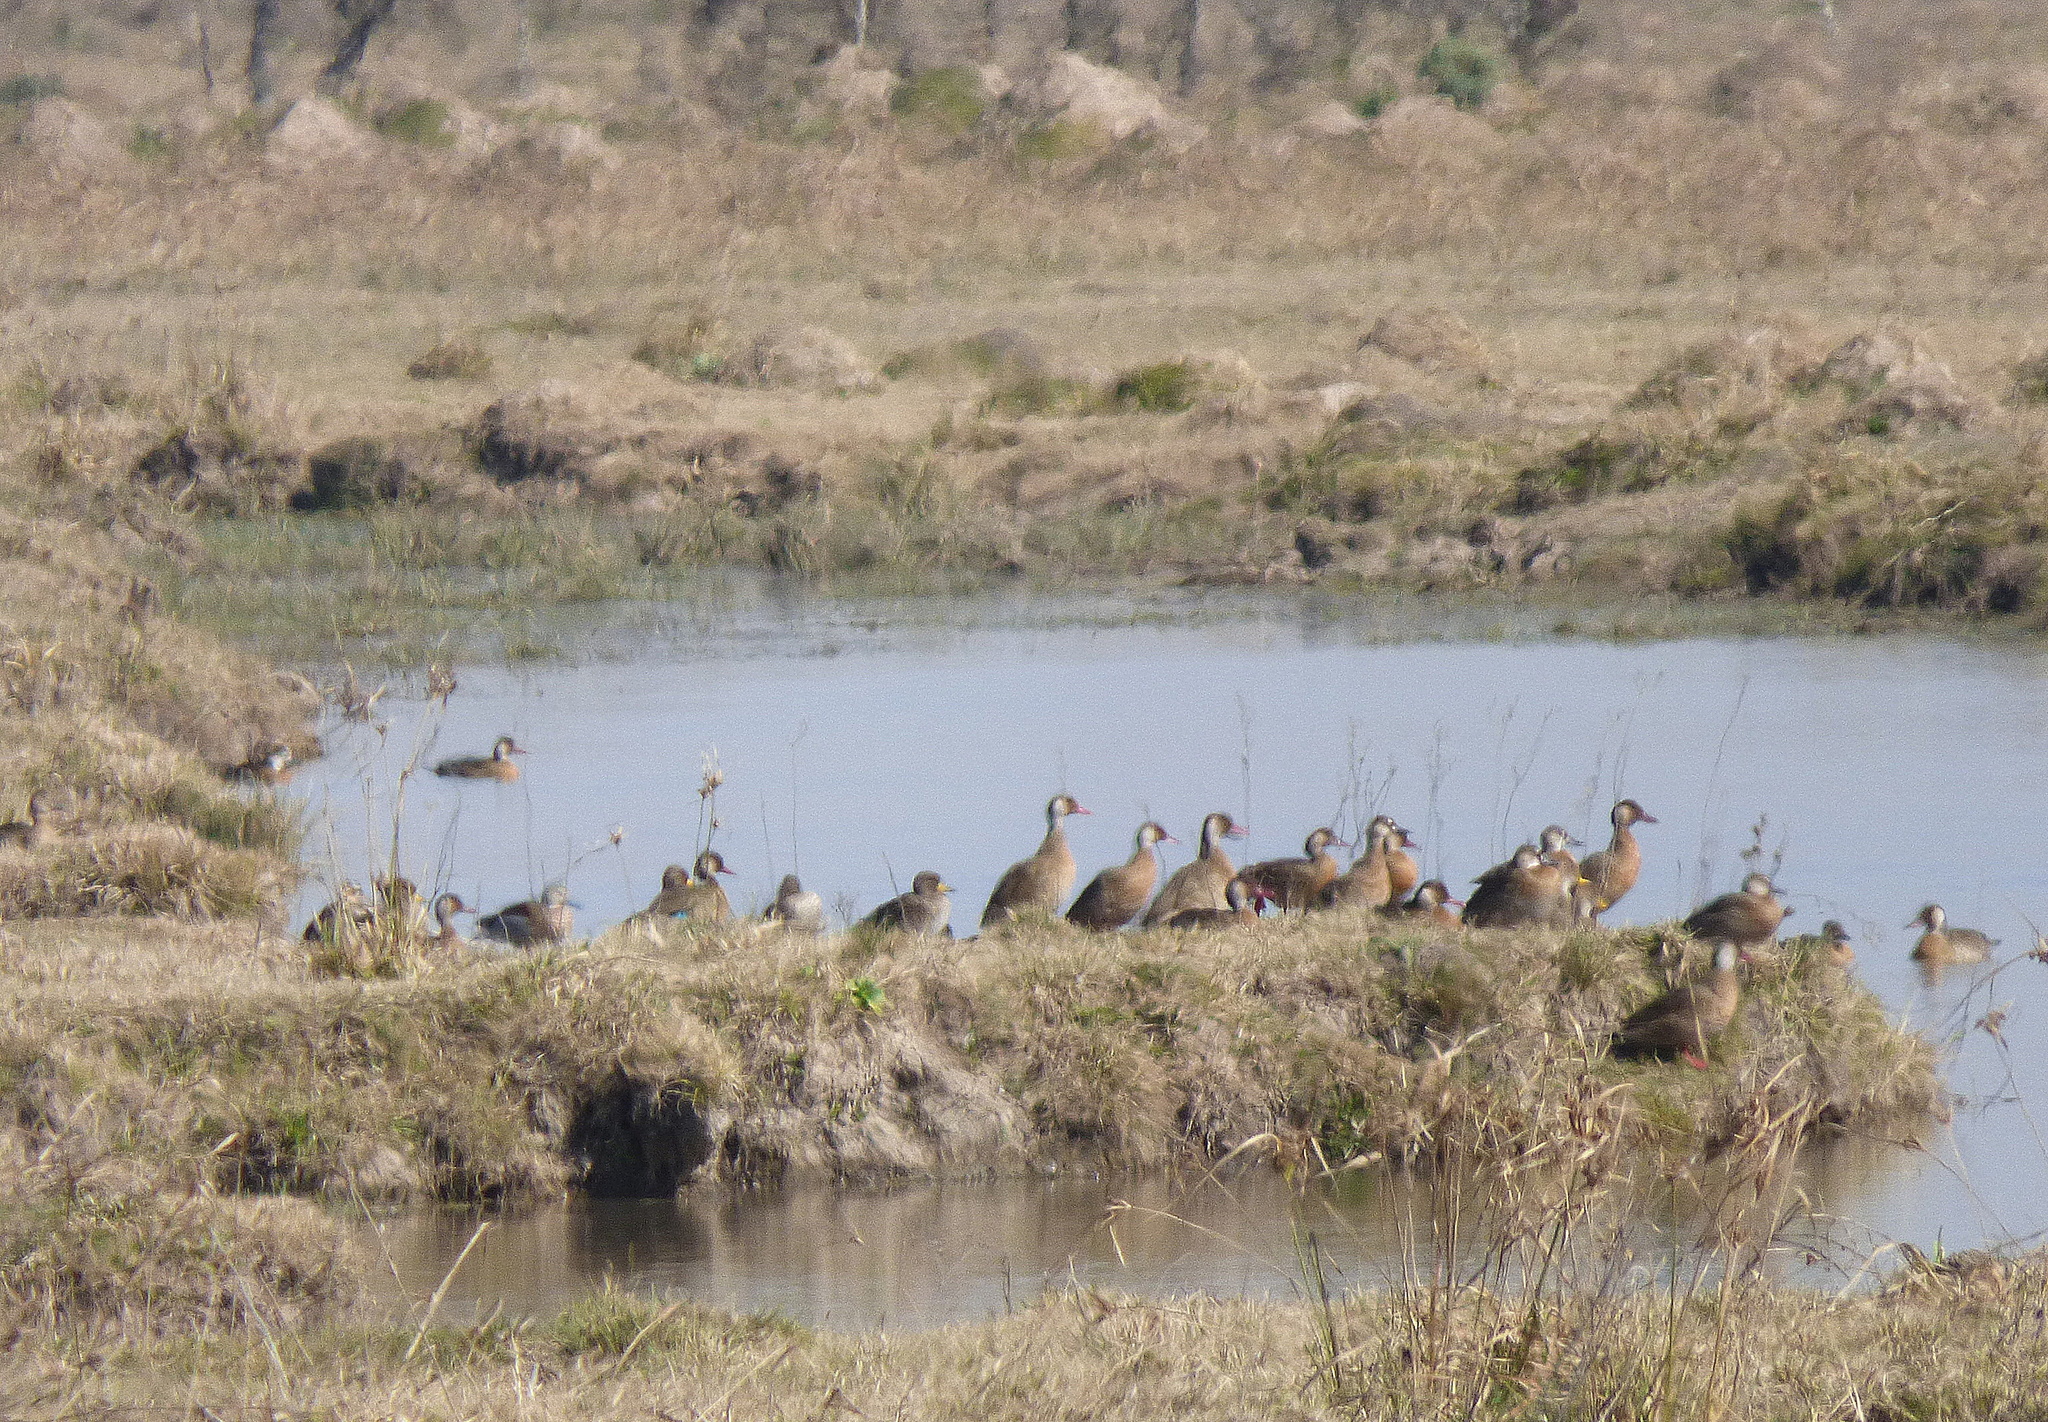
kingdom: Animalia
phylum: Chordata
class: Aves
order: Anseriformes
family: Anatidae
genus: Amazonetta
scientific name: Amazonetta brasiliensis
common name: Brazilian teal
